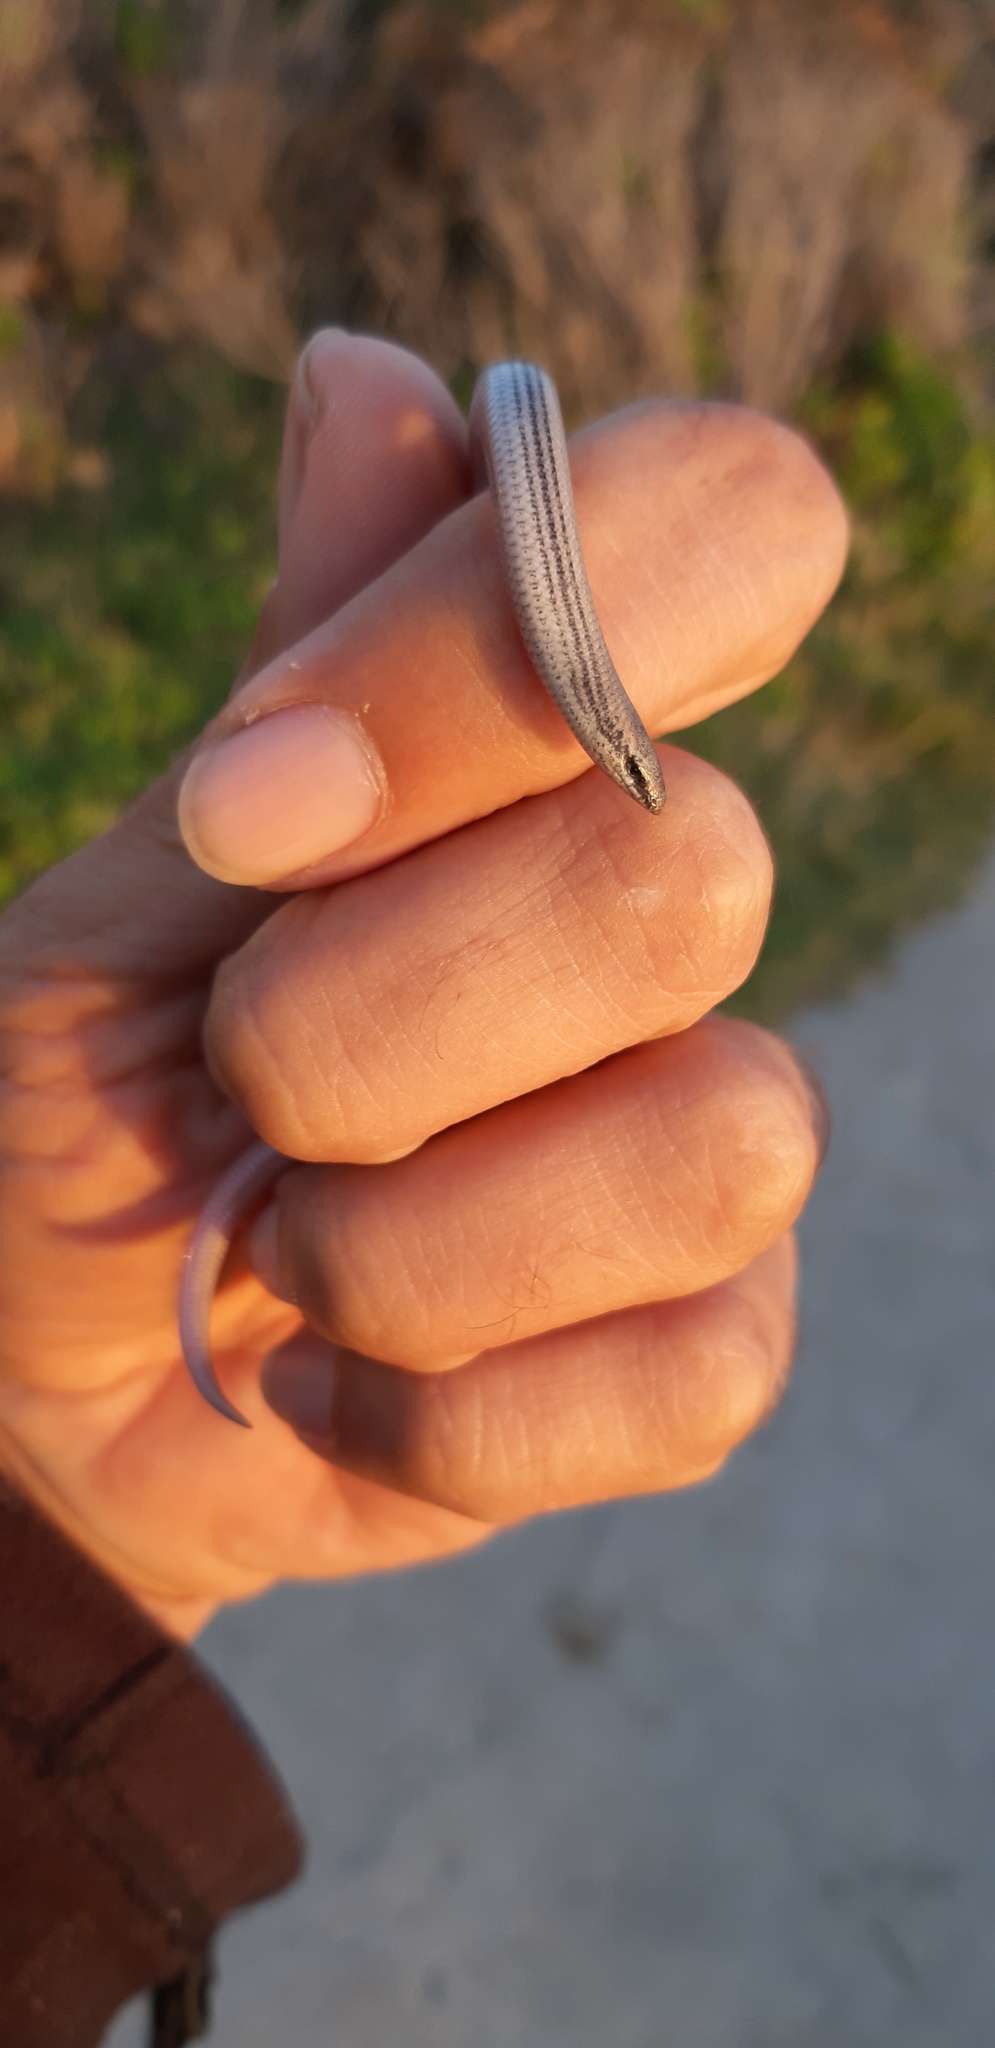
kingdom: Animalia
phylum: Chordata
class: Squamata
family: Scincidae
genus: Scelotes
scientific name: Scelotes bipes
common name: Common burrowing skink
